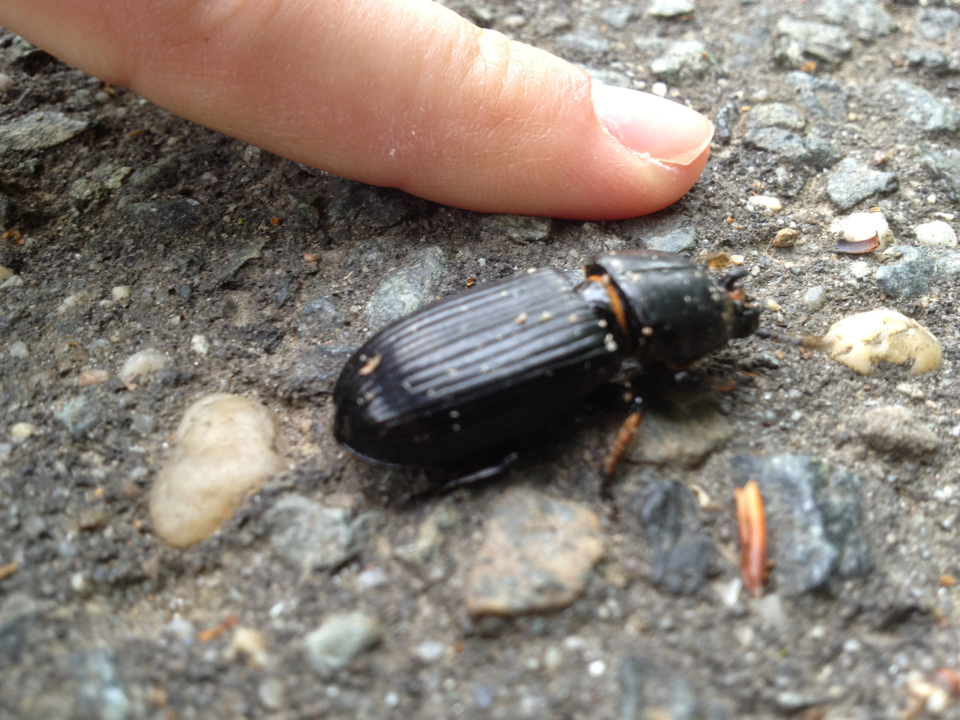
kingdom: Animalia
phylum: Arthropoda
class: Insecta
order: Coleoptera
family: Passalidae
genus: Odontotaenius
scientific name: Odontotaenius disjunctus
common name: Patent leather beetle
